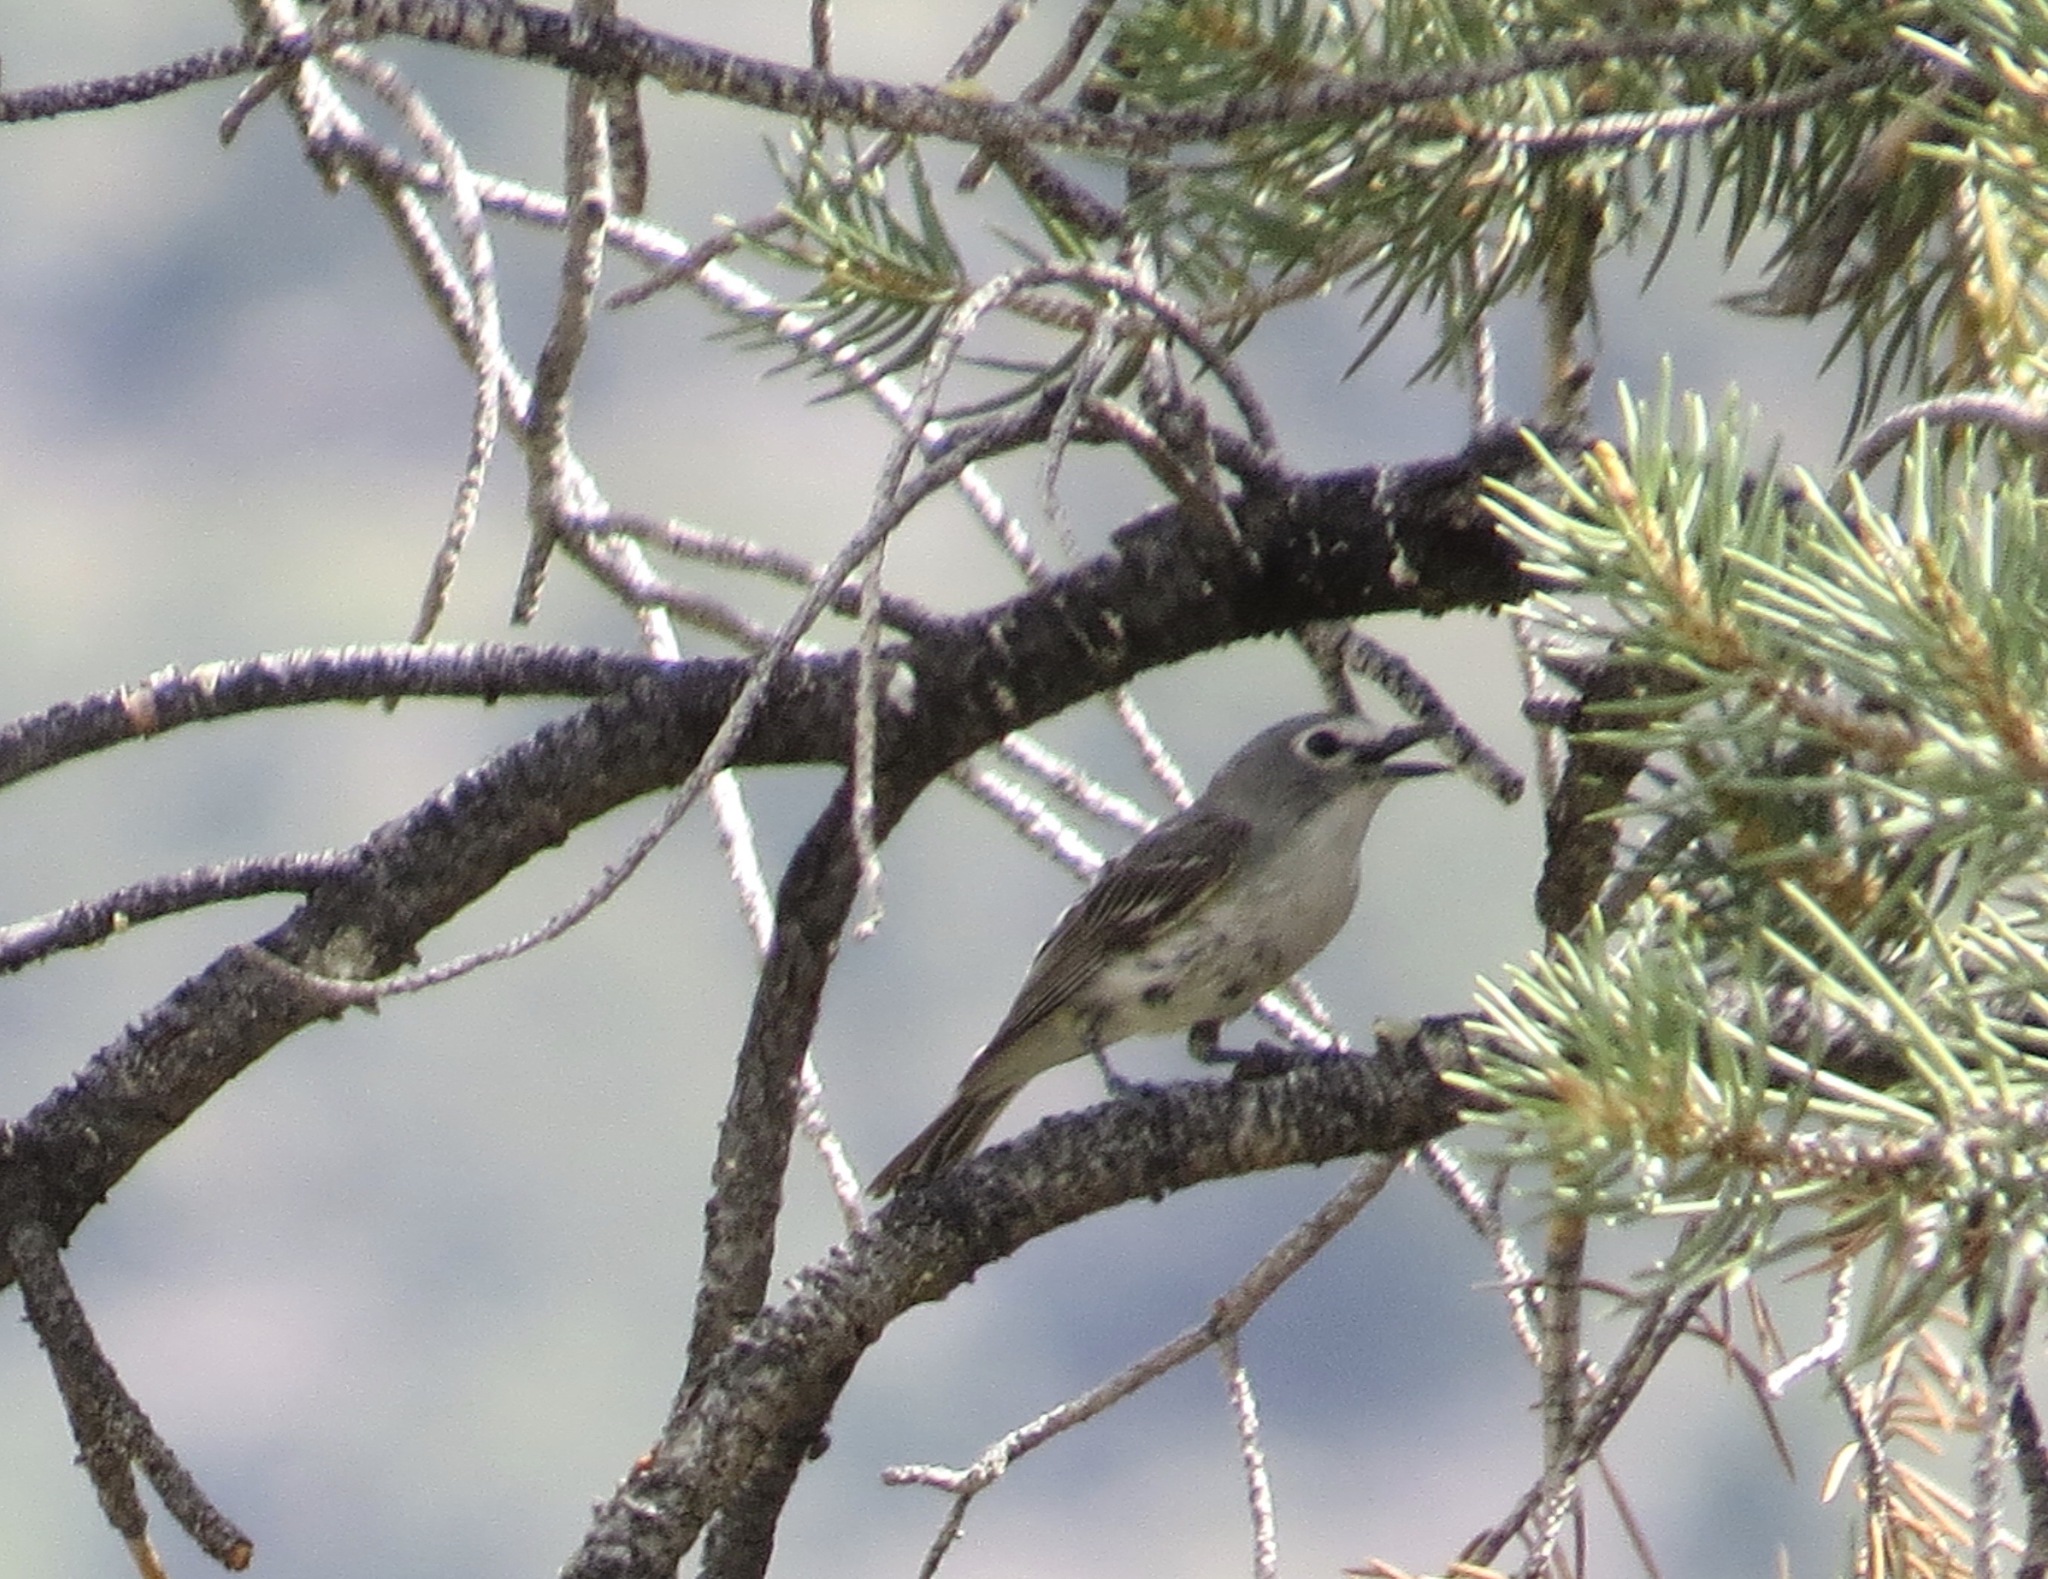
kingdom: Animalia
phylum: Chordata
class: Aves
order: Passeriformes
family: Vireonidae
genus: Vireo
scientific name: Vireo plumbeus
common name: Plumbeous vireo
